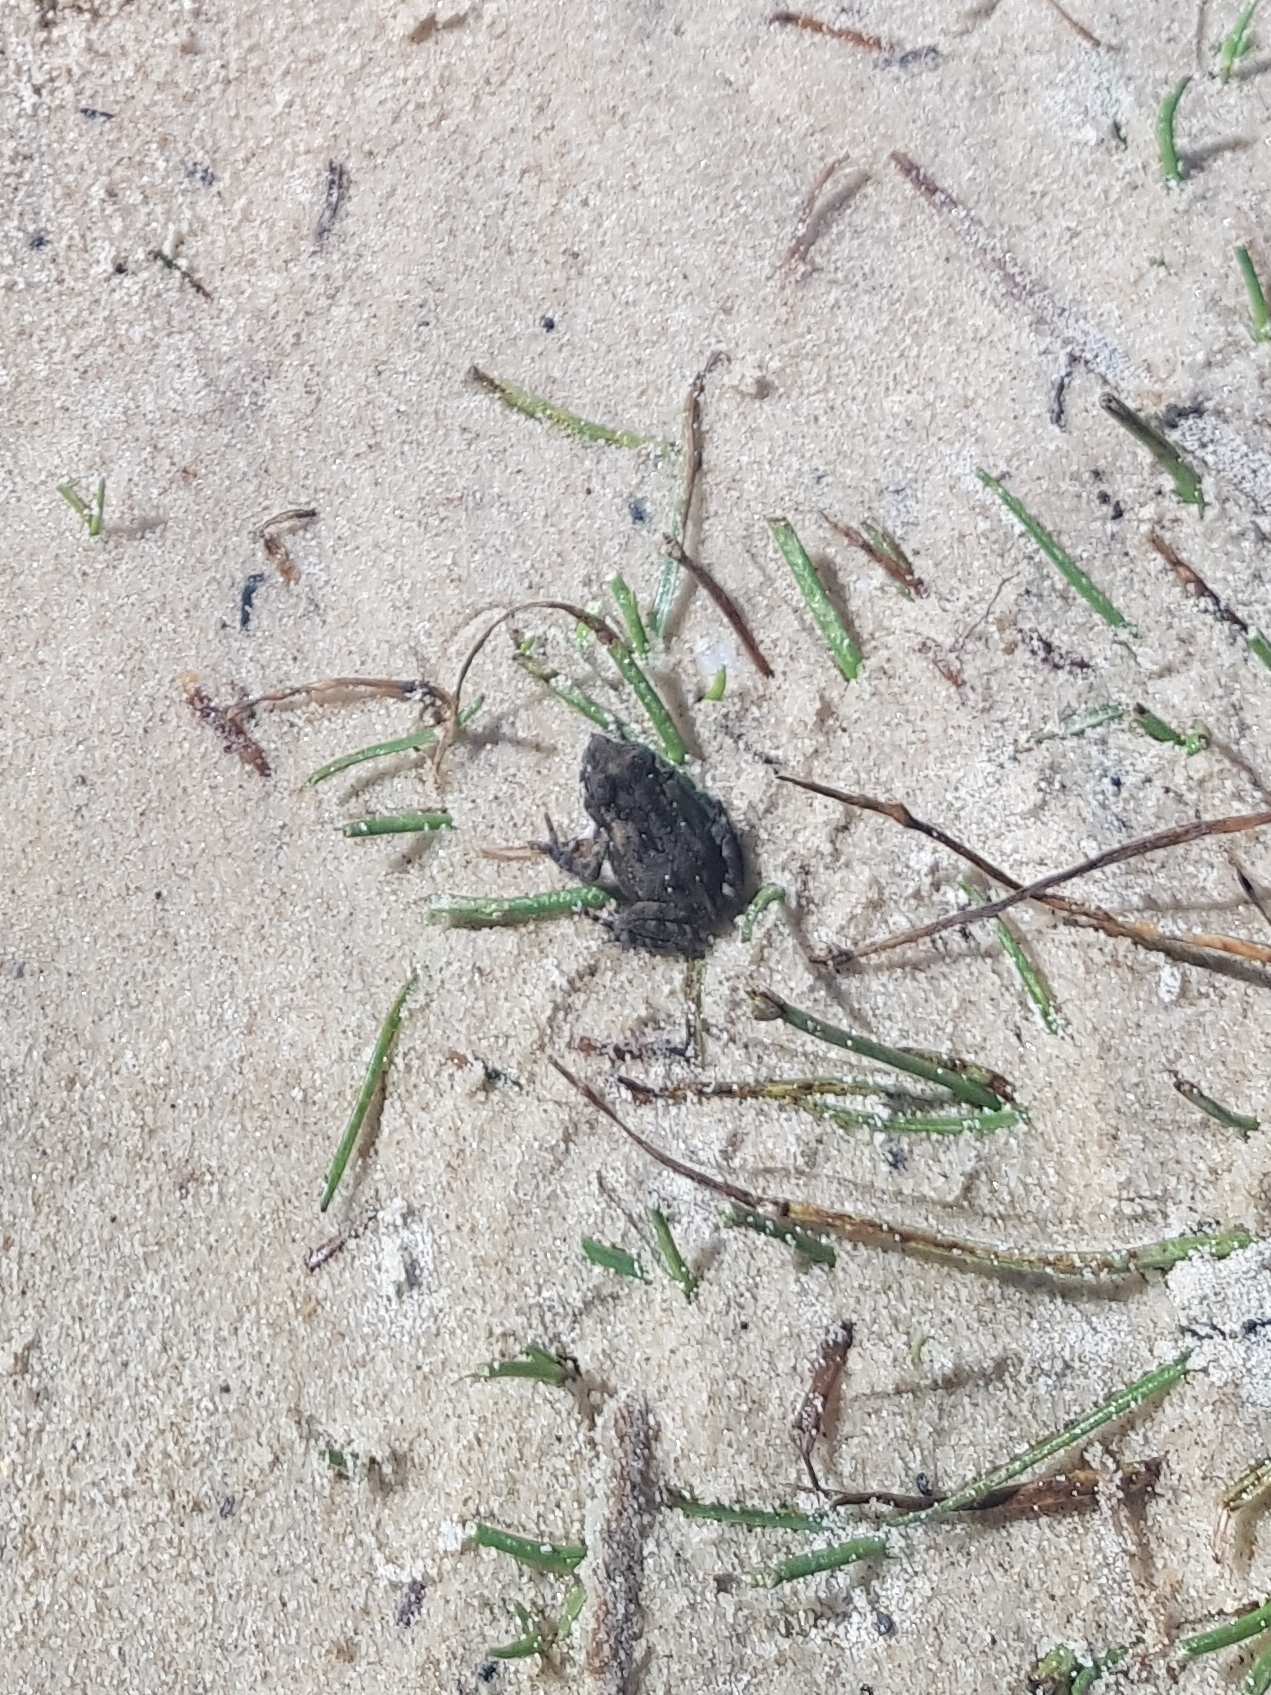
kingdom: Animalia
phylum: Chordata
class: Amphibia
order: Anura
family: Bufonidae
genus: Rhinella
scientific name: Rhinella marina
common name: Cane toad
